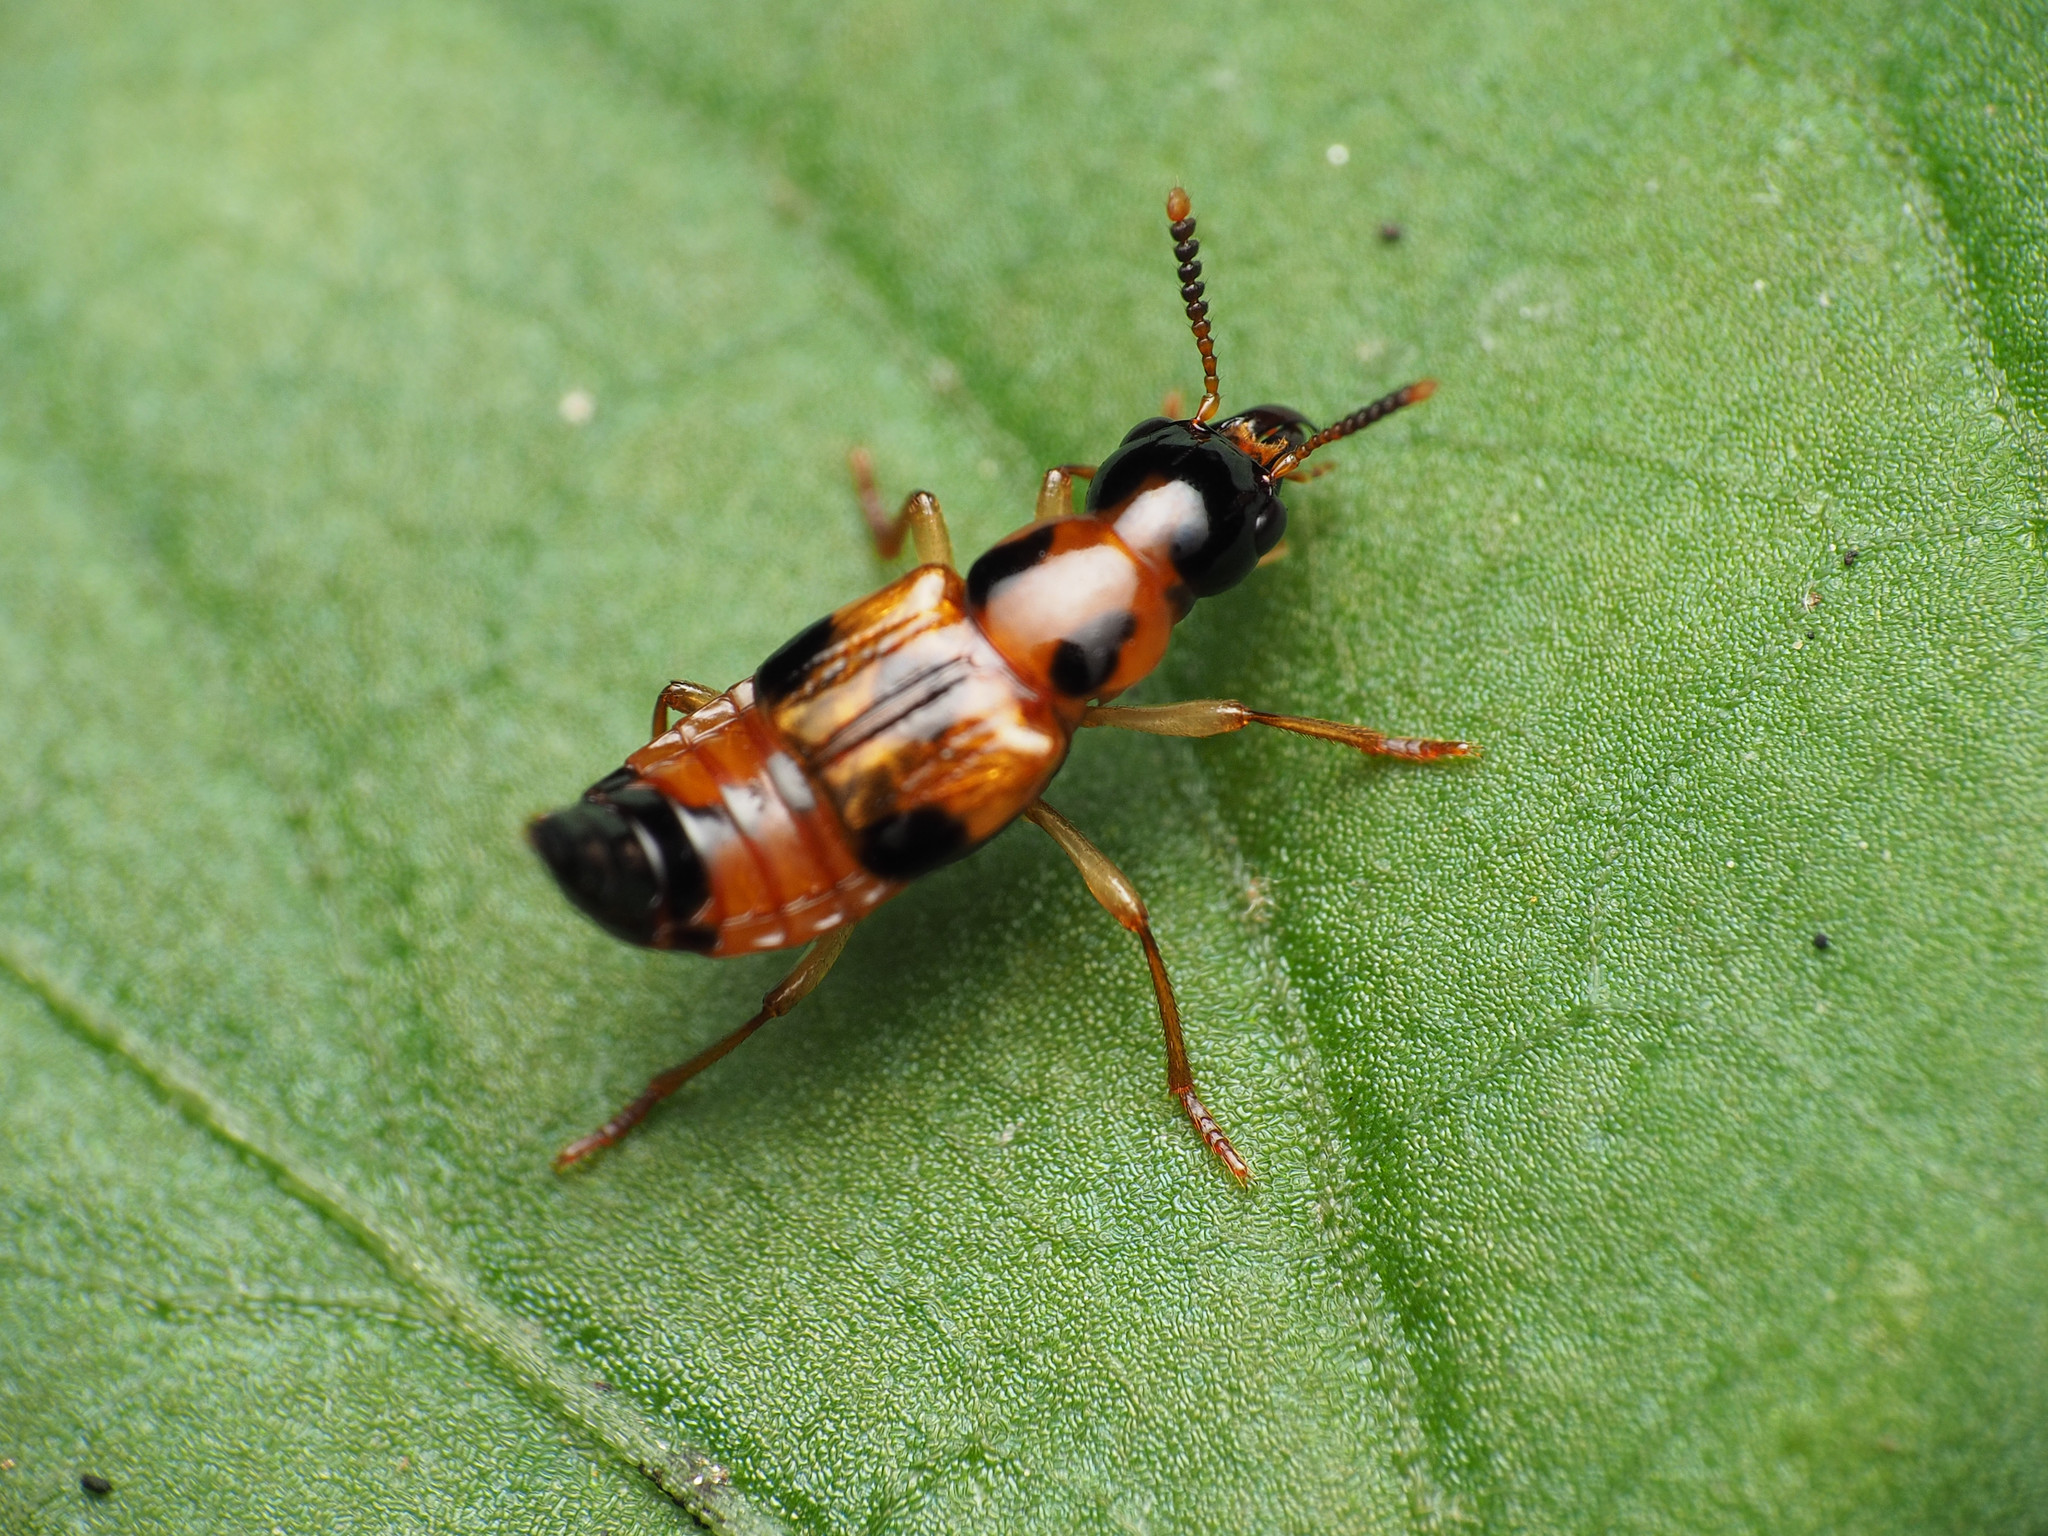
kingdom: Animalia
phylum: Arthropoda
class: Insecta
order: Coleoptera
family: Staphylinidae
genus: Pseudoxyporus
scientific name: Pseudoxyporus quinquemaculatus
